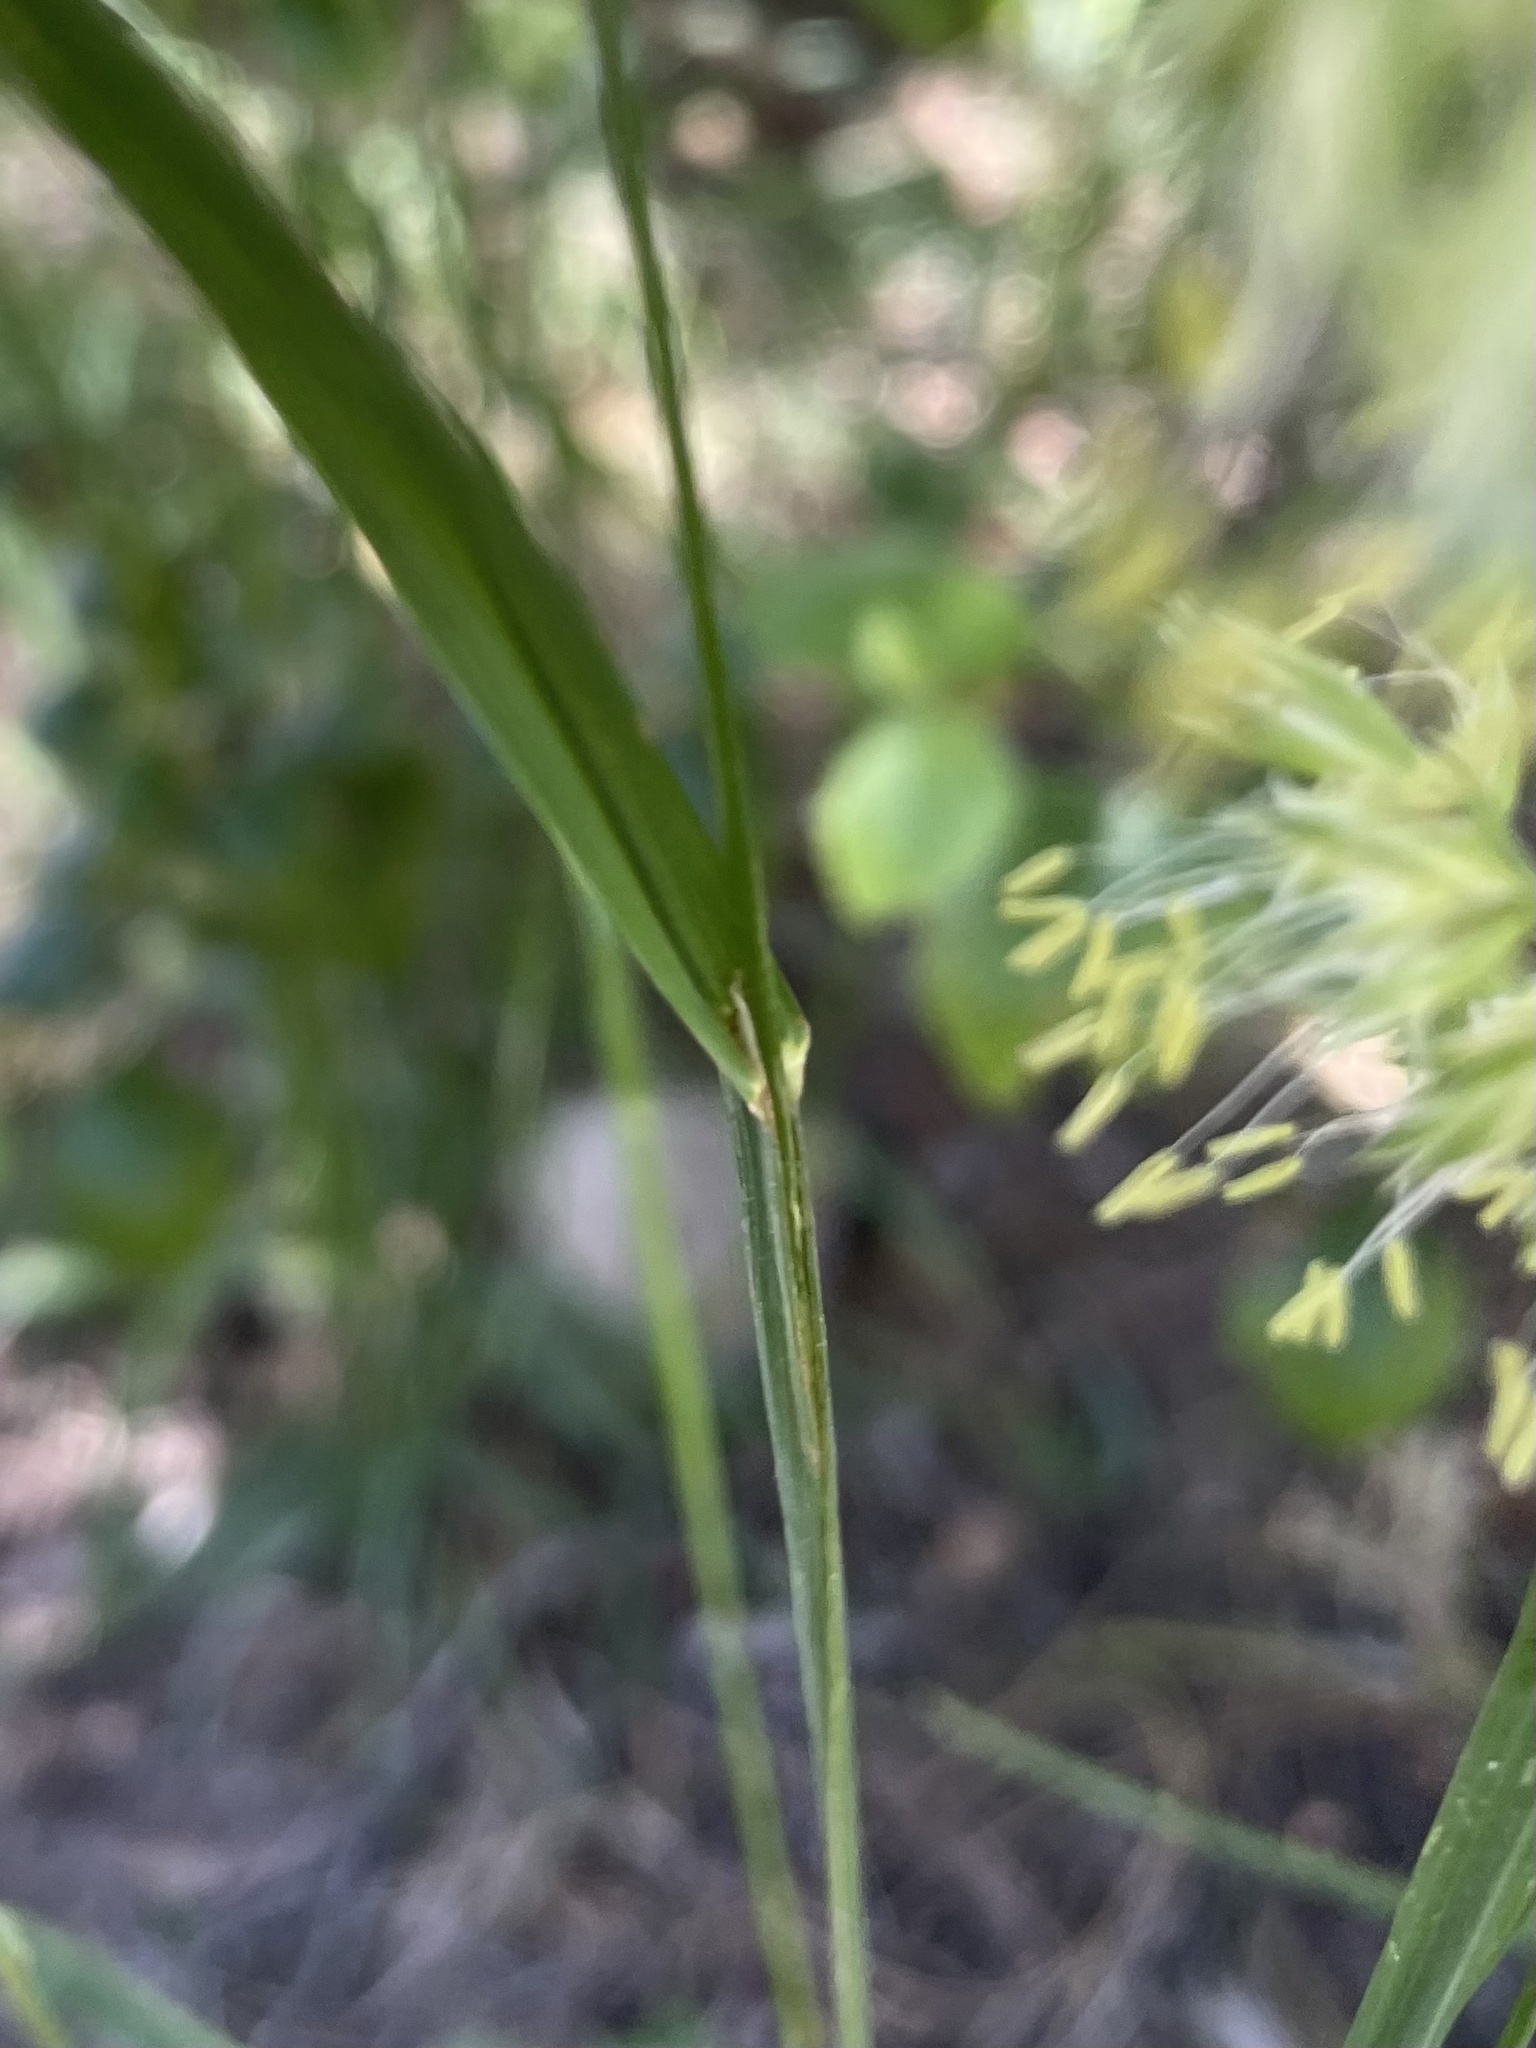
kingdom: Plantae
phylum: Tracheophyta
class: Liliopsida
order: Poales
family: Poaceae
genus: Dactylis
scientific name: Dactylis glomerata
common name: Orchardgrass
